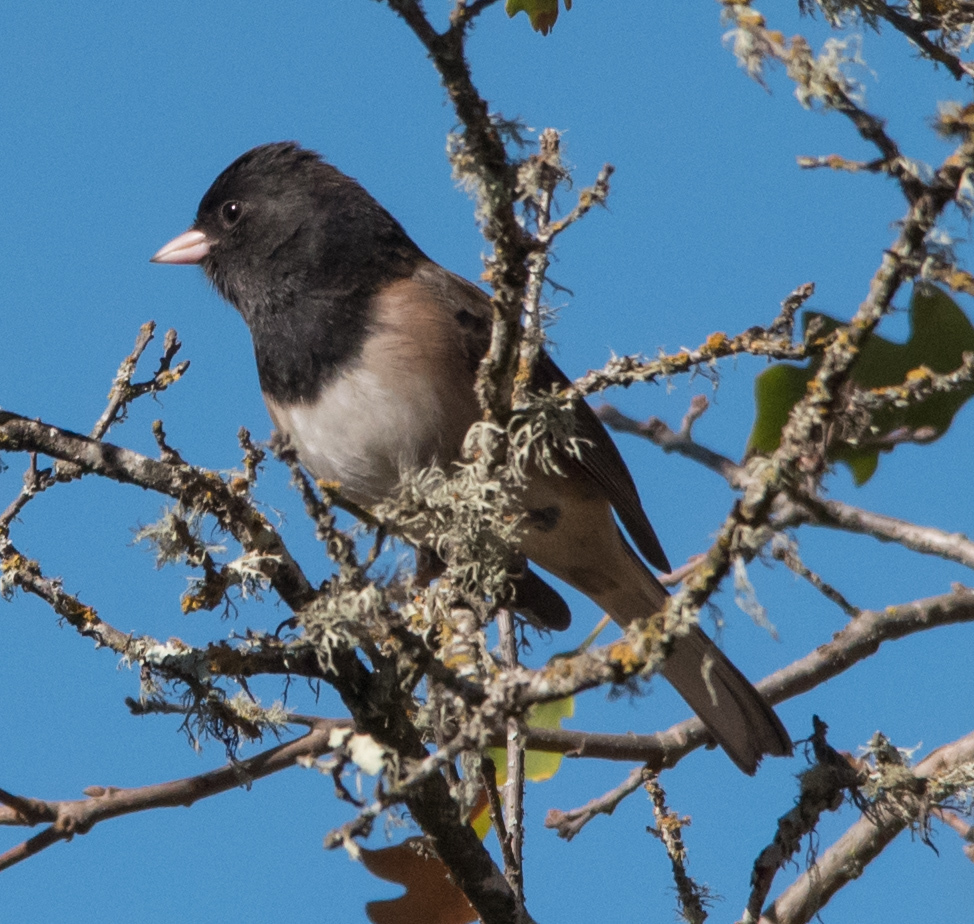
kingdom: Animalia
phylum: Chordata
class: Aves
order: Passeriformes
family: Passerellidae
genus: Junco
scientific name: Junco hyemalis
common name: Dark-eyed junco
